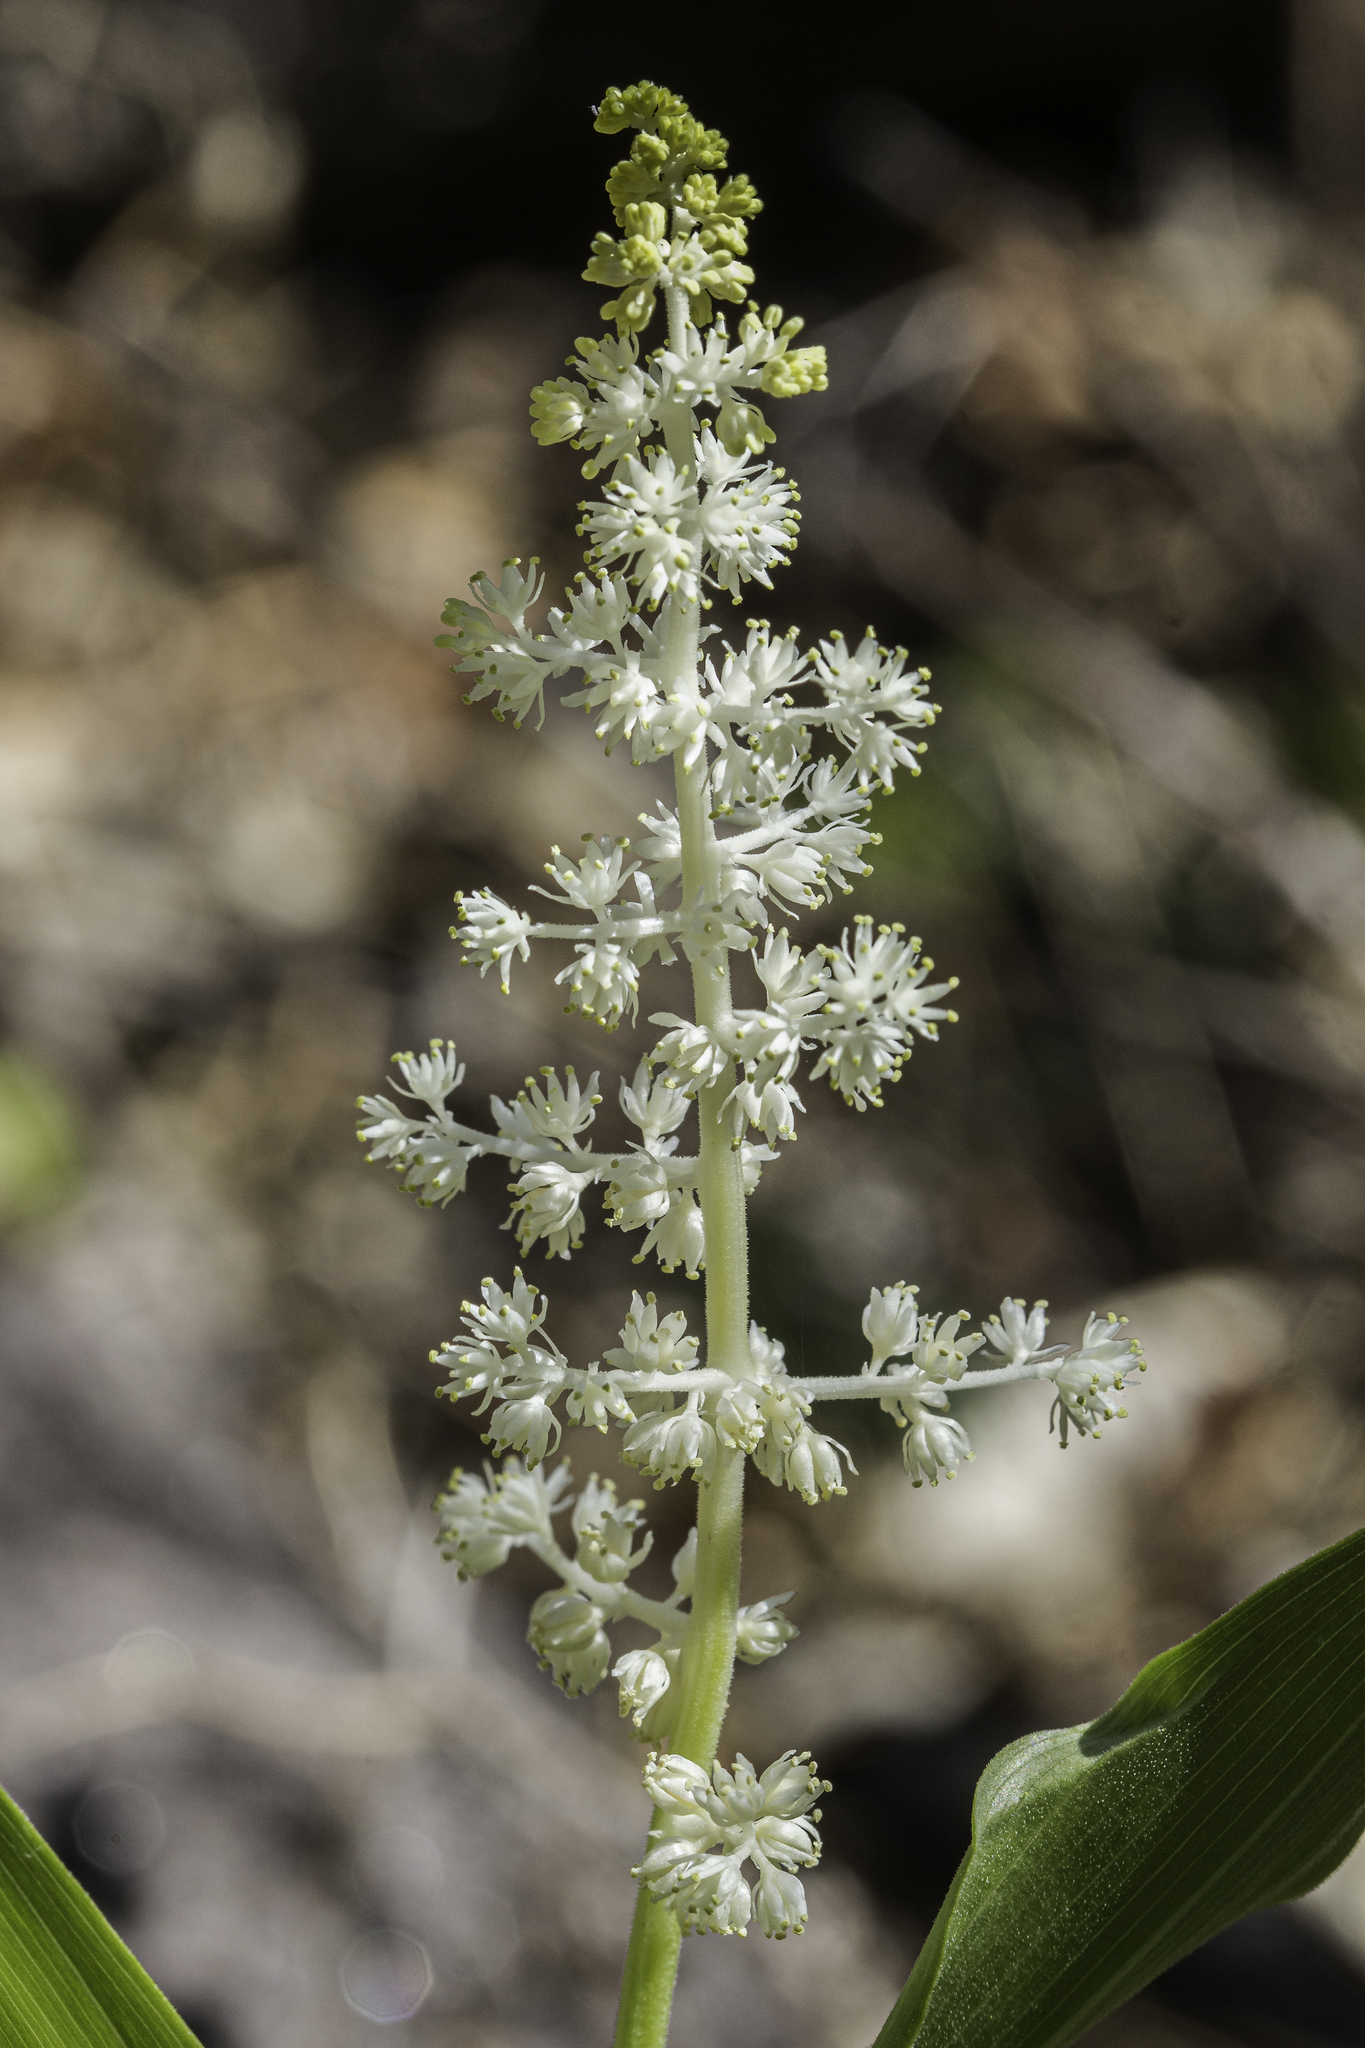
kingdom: Plantae
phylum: Tracheophyta
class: Liliopsida
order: Asparagales
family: Asparagaceae
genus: Maianthemum
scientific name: Maianthemum racemosum
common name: False spikenard
